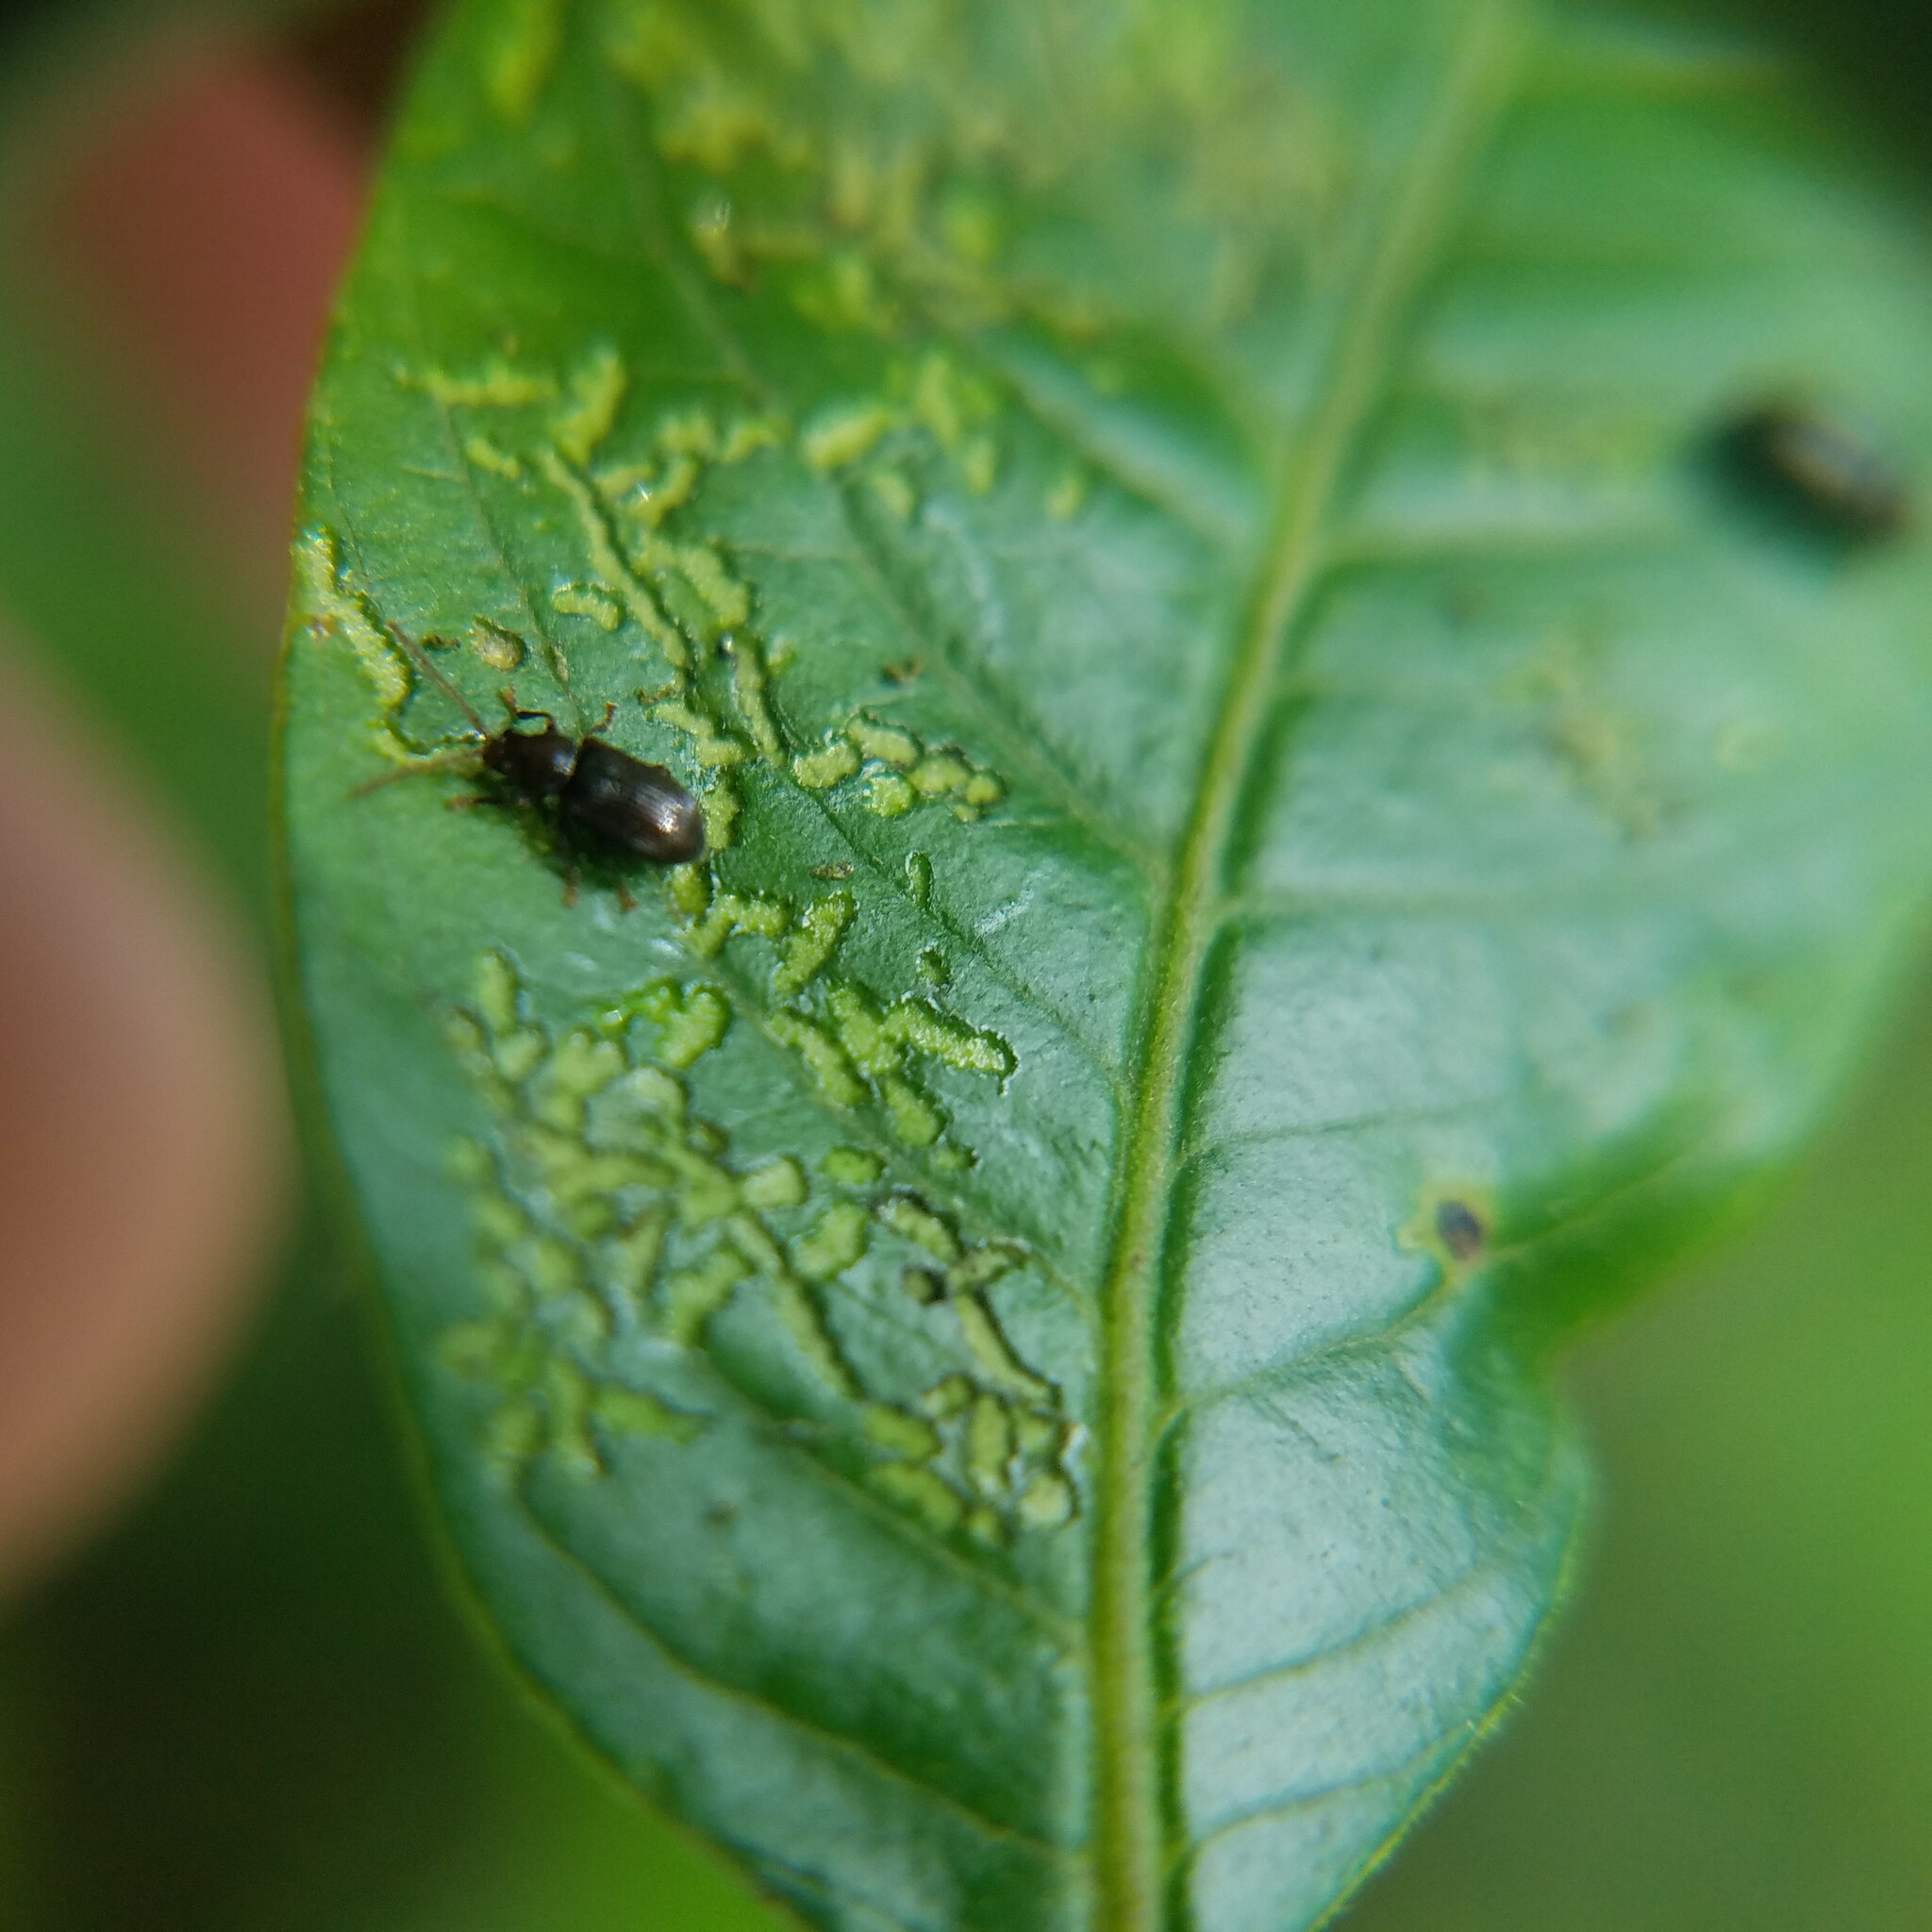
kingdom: Animalia
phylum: Arthropoda
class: Insecta
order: Coleoptera
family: Chrysomelidae
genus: Aulacothorax
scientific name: Aulacothorax
